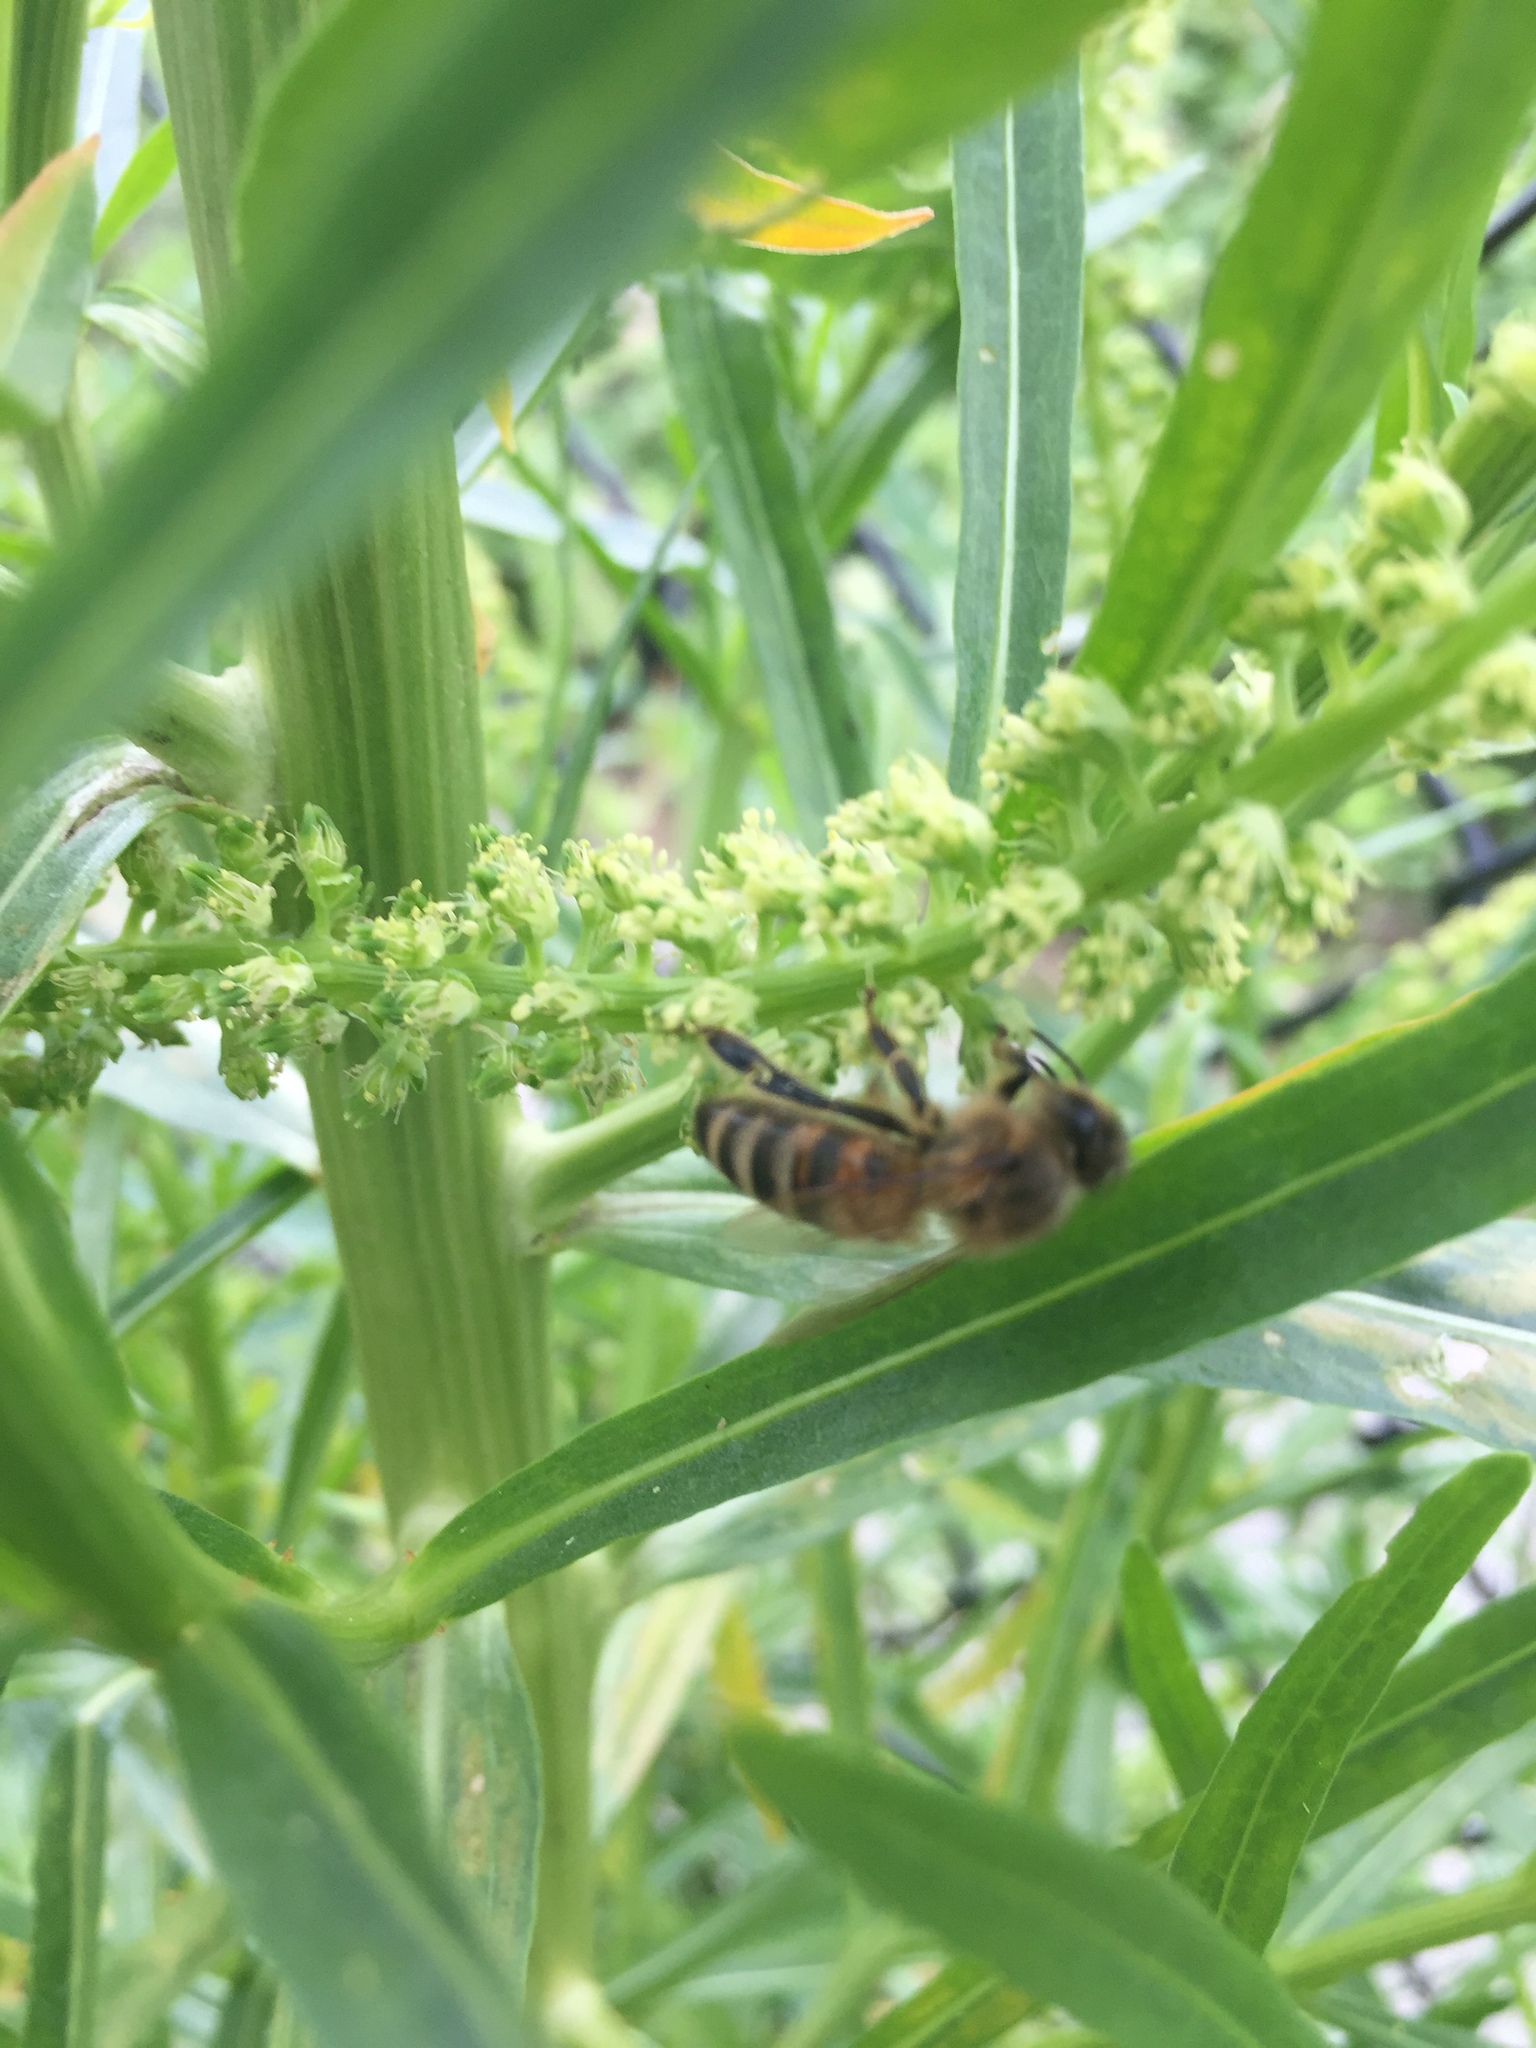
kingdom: Animalia
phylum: Arthropoda
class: Insecta
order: Hymenoptera
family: Apidae
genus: Apis
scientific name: Apis mellifera
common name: Honey bee
